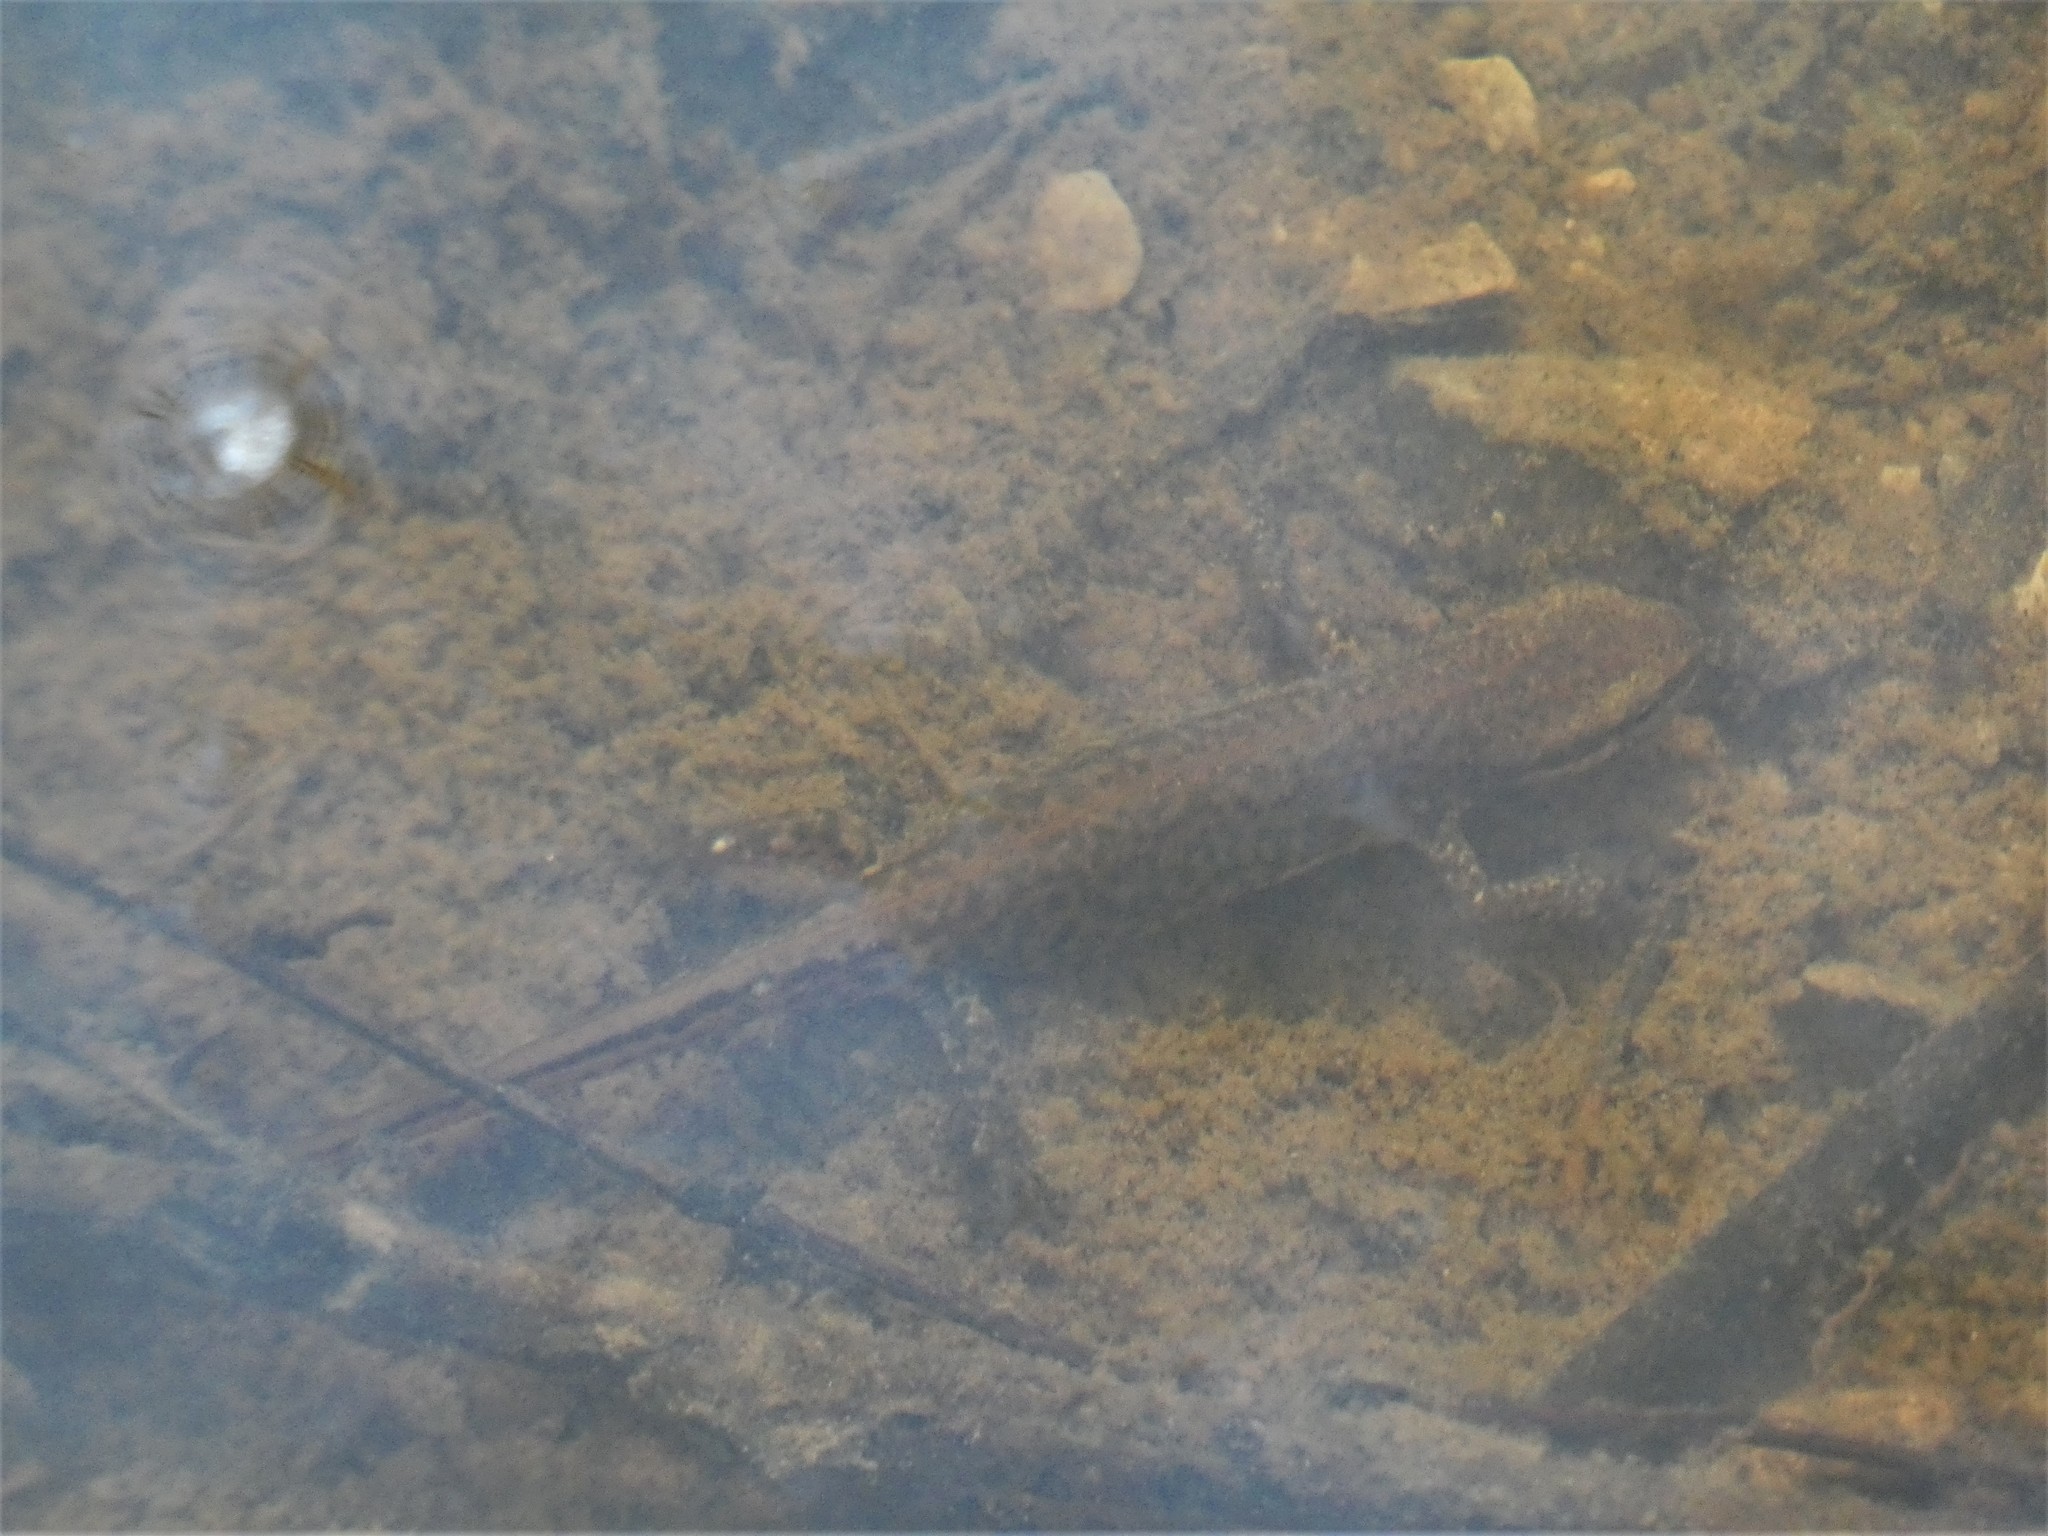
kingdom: Animalia
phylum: Chordata
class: Amphibia
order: Caudata
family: Salamandridae
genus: Lissotriton
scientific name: Lissotriton helveticus
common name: Palmate newt
